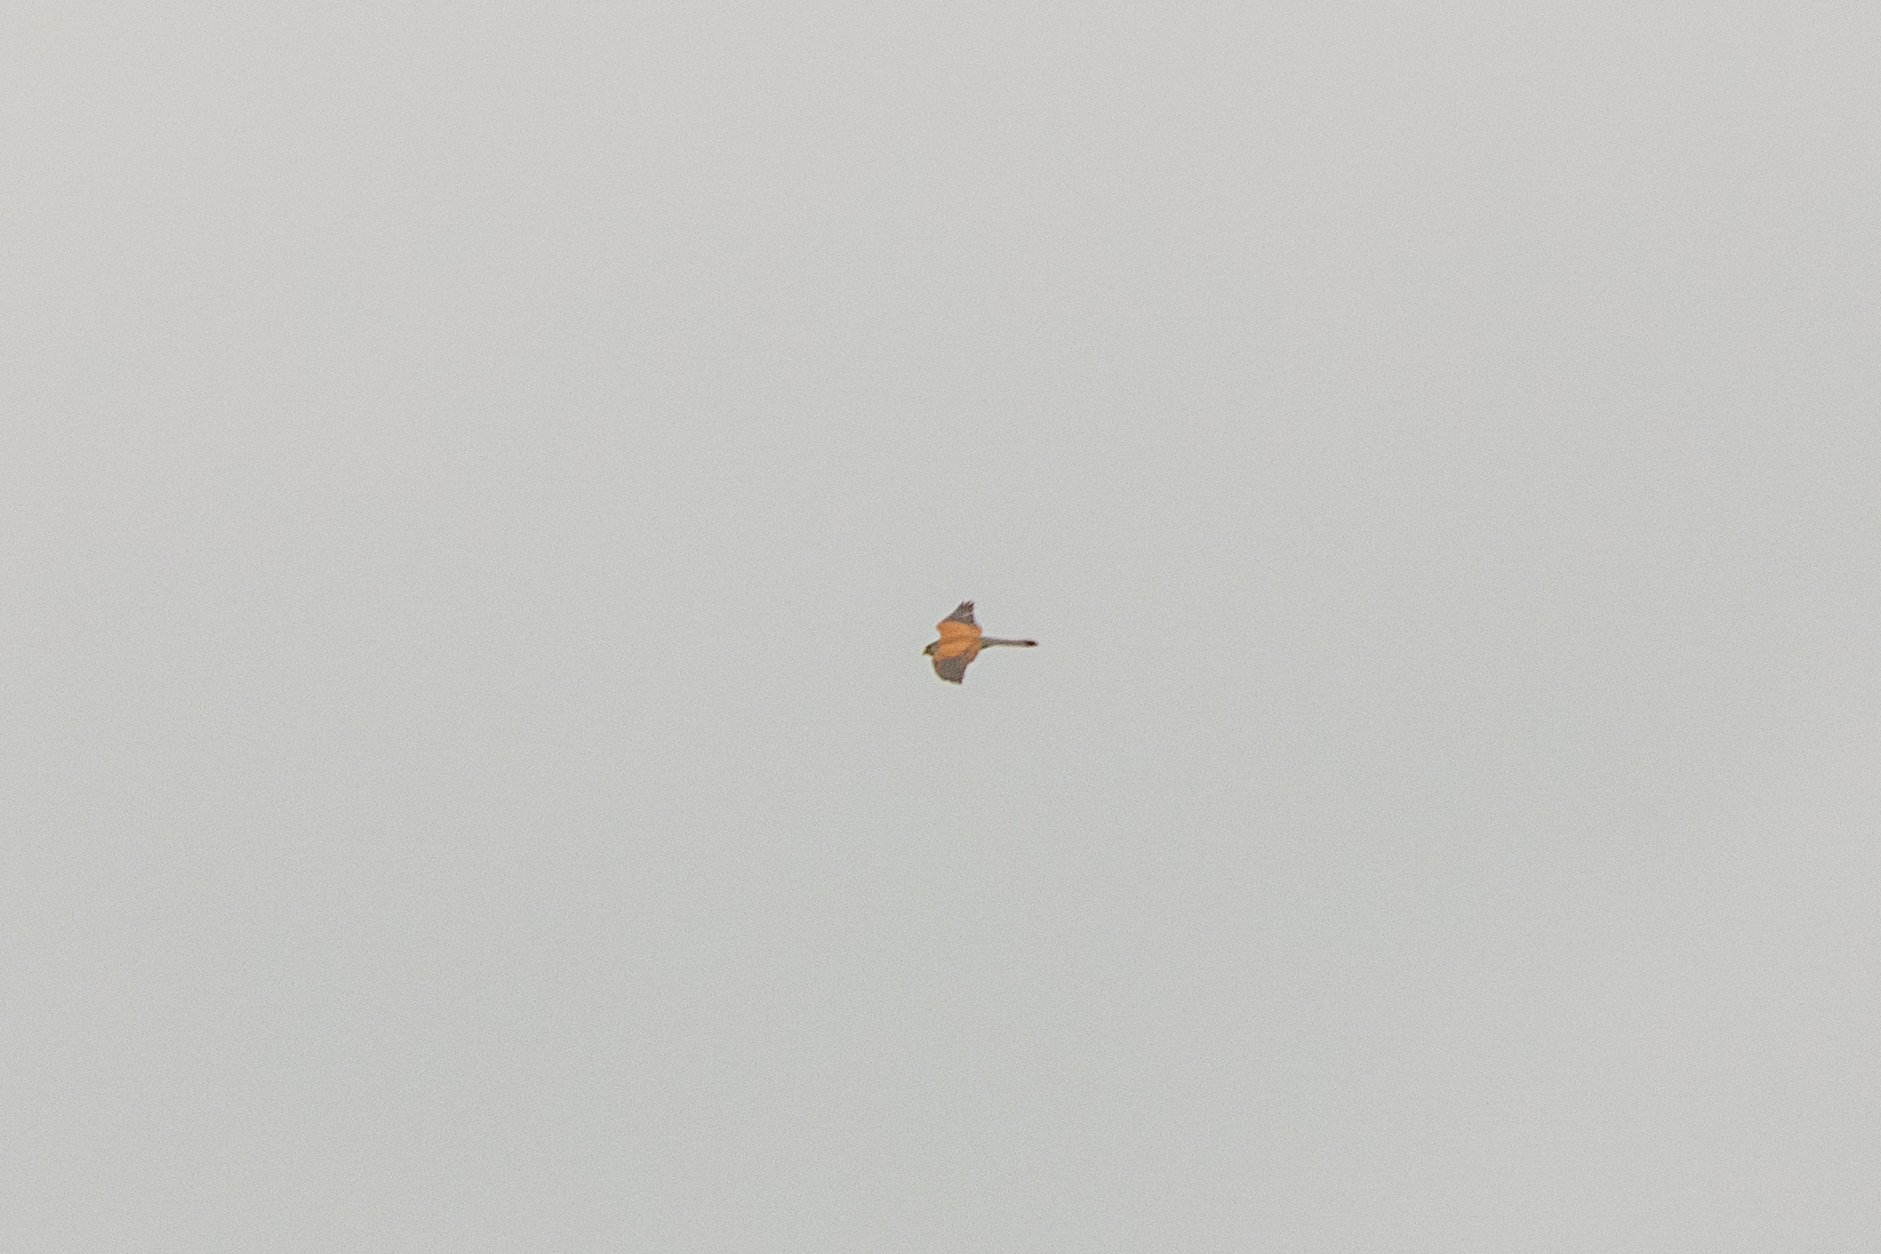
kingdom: Animalia
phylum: Chordata
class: Aves
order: Falconiformes
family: Falconidae
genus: Falco
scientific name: Falco tinnunculus
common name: Common kestrel
